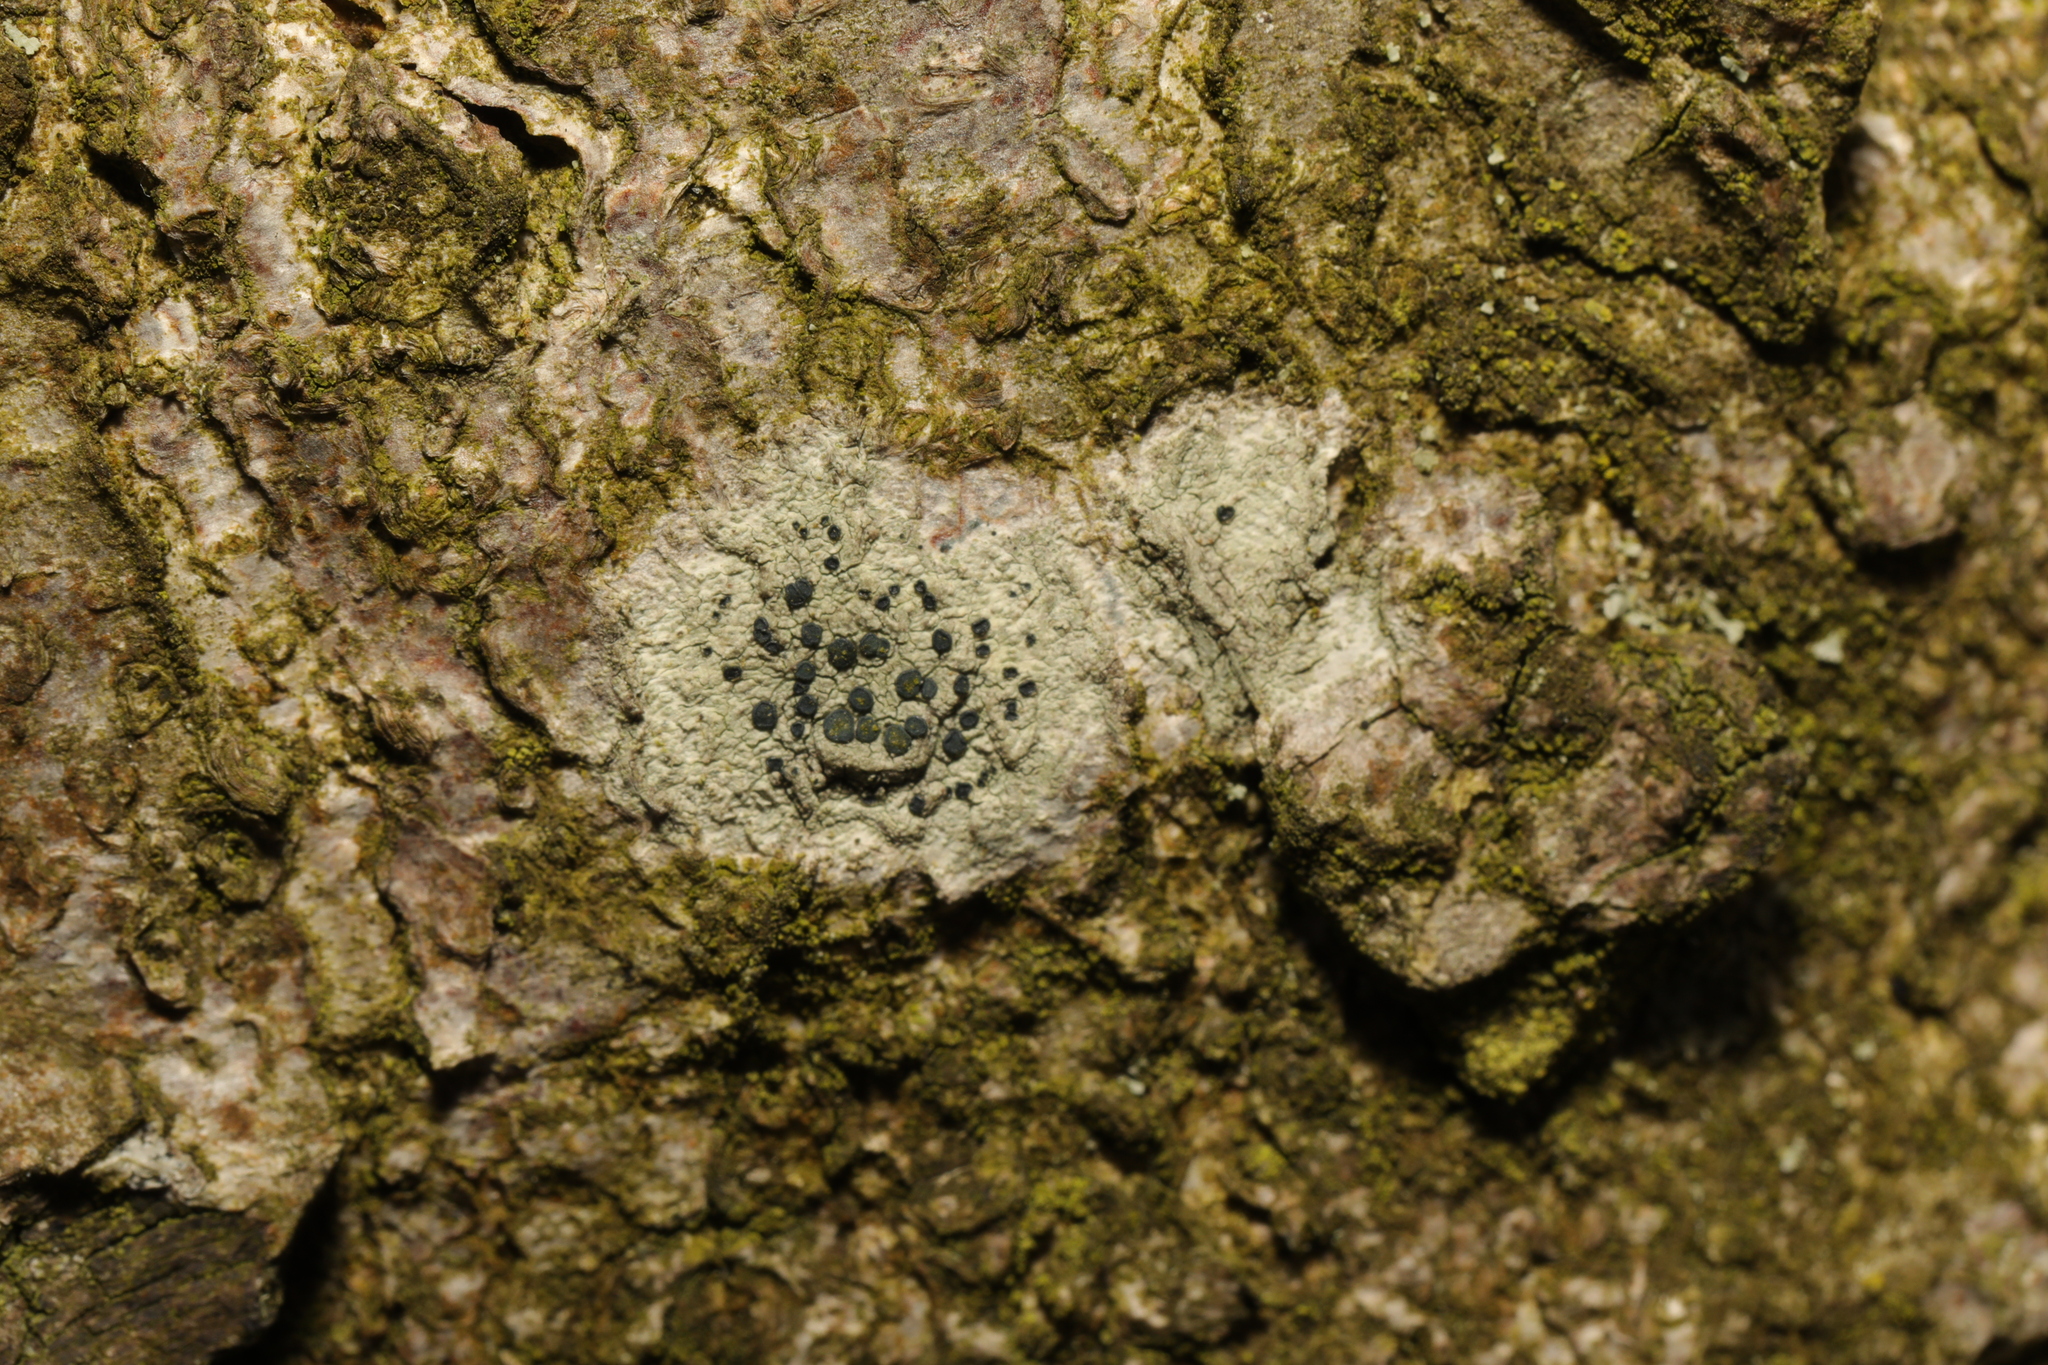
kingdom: Fungi
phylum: Ascomycota
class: Lecanoromycetes
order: Lecanorales
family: Lecanoraceae
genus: Lecidella
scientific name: Lecidella elaeochroma
